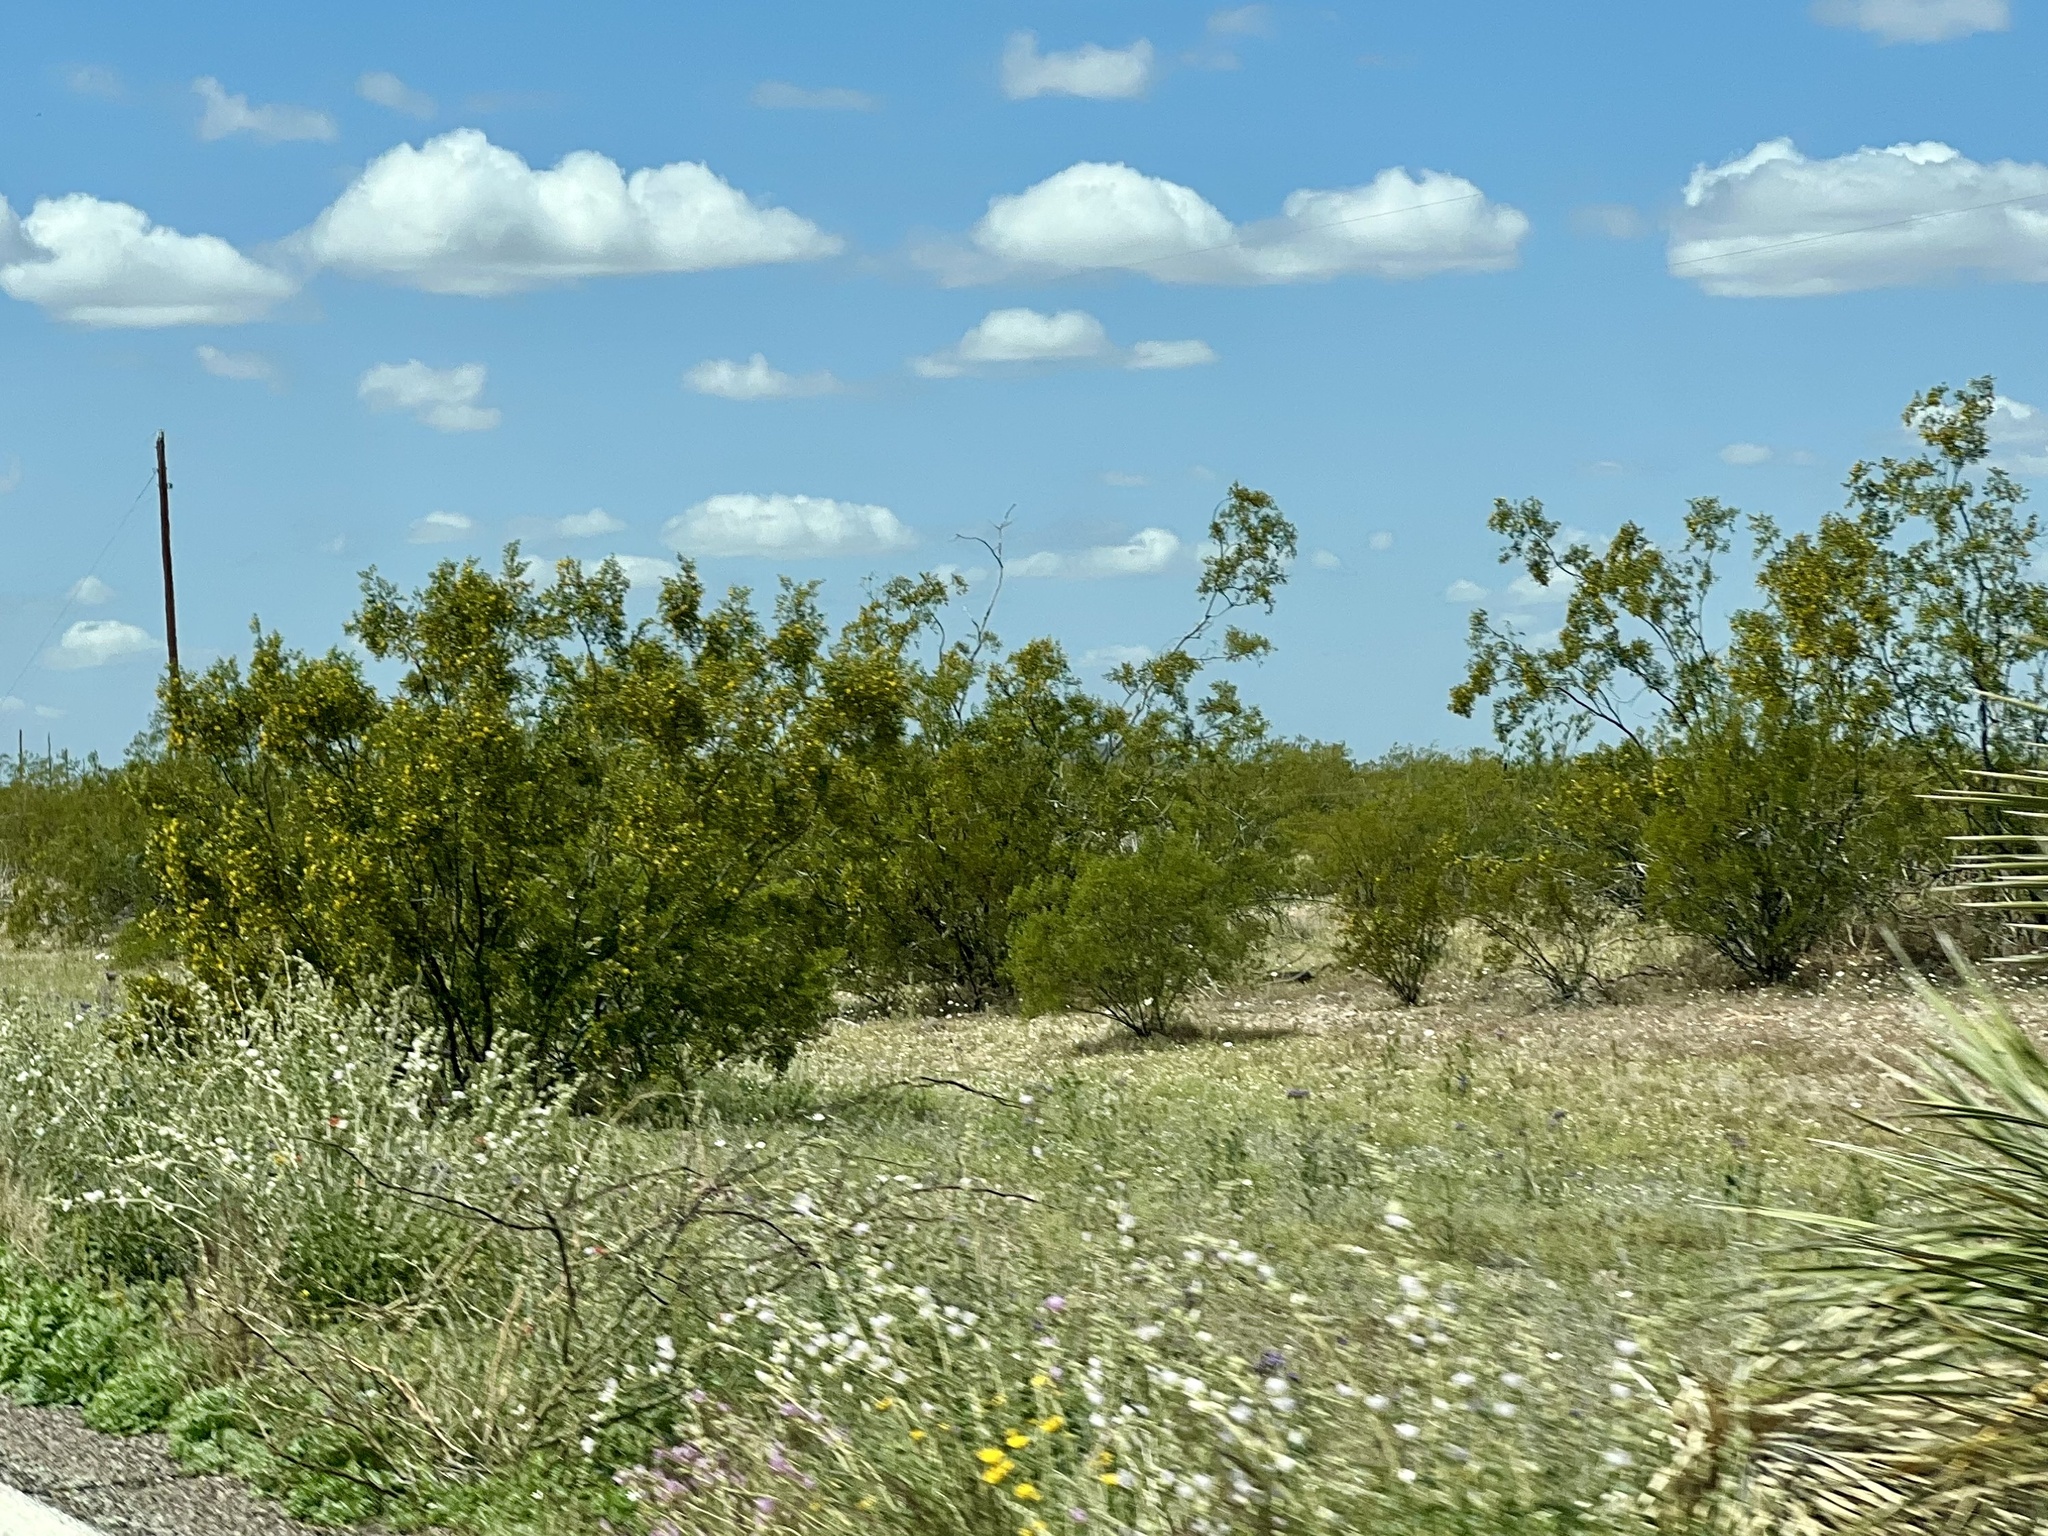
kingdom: Plantae
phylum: Tracheophyta
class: Magnoliopsida
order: Zygophyllales
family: Zygophyllaceae
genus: Larrea
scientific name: Larrea tridentata
